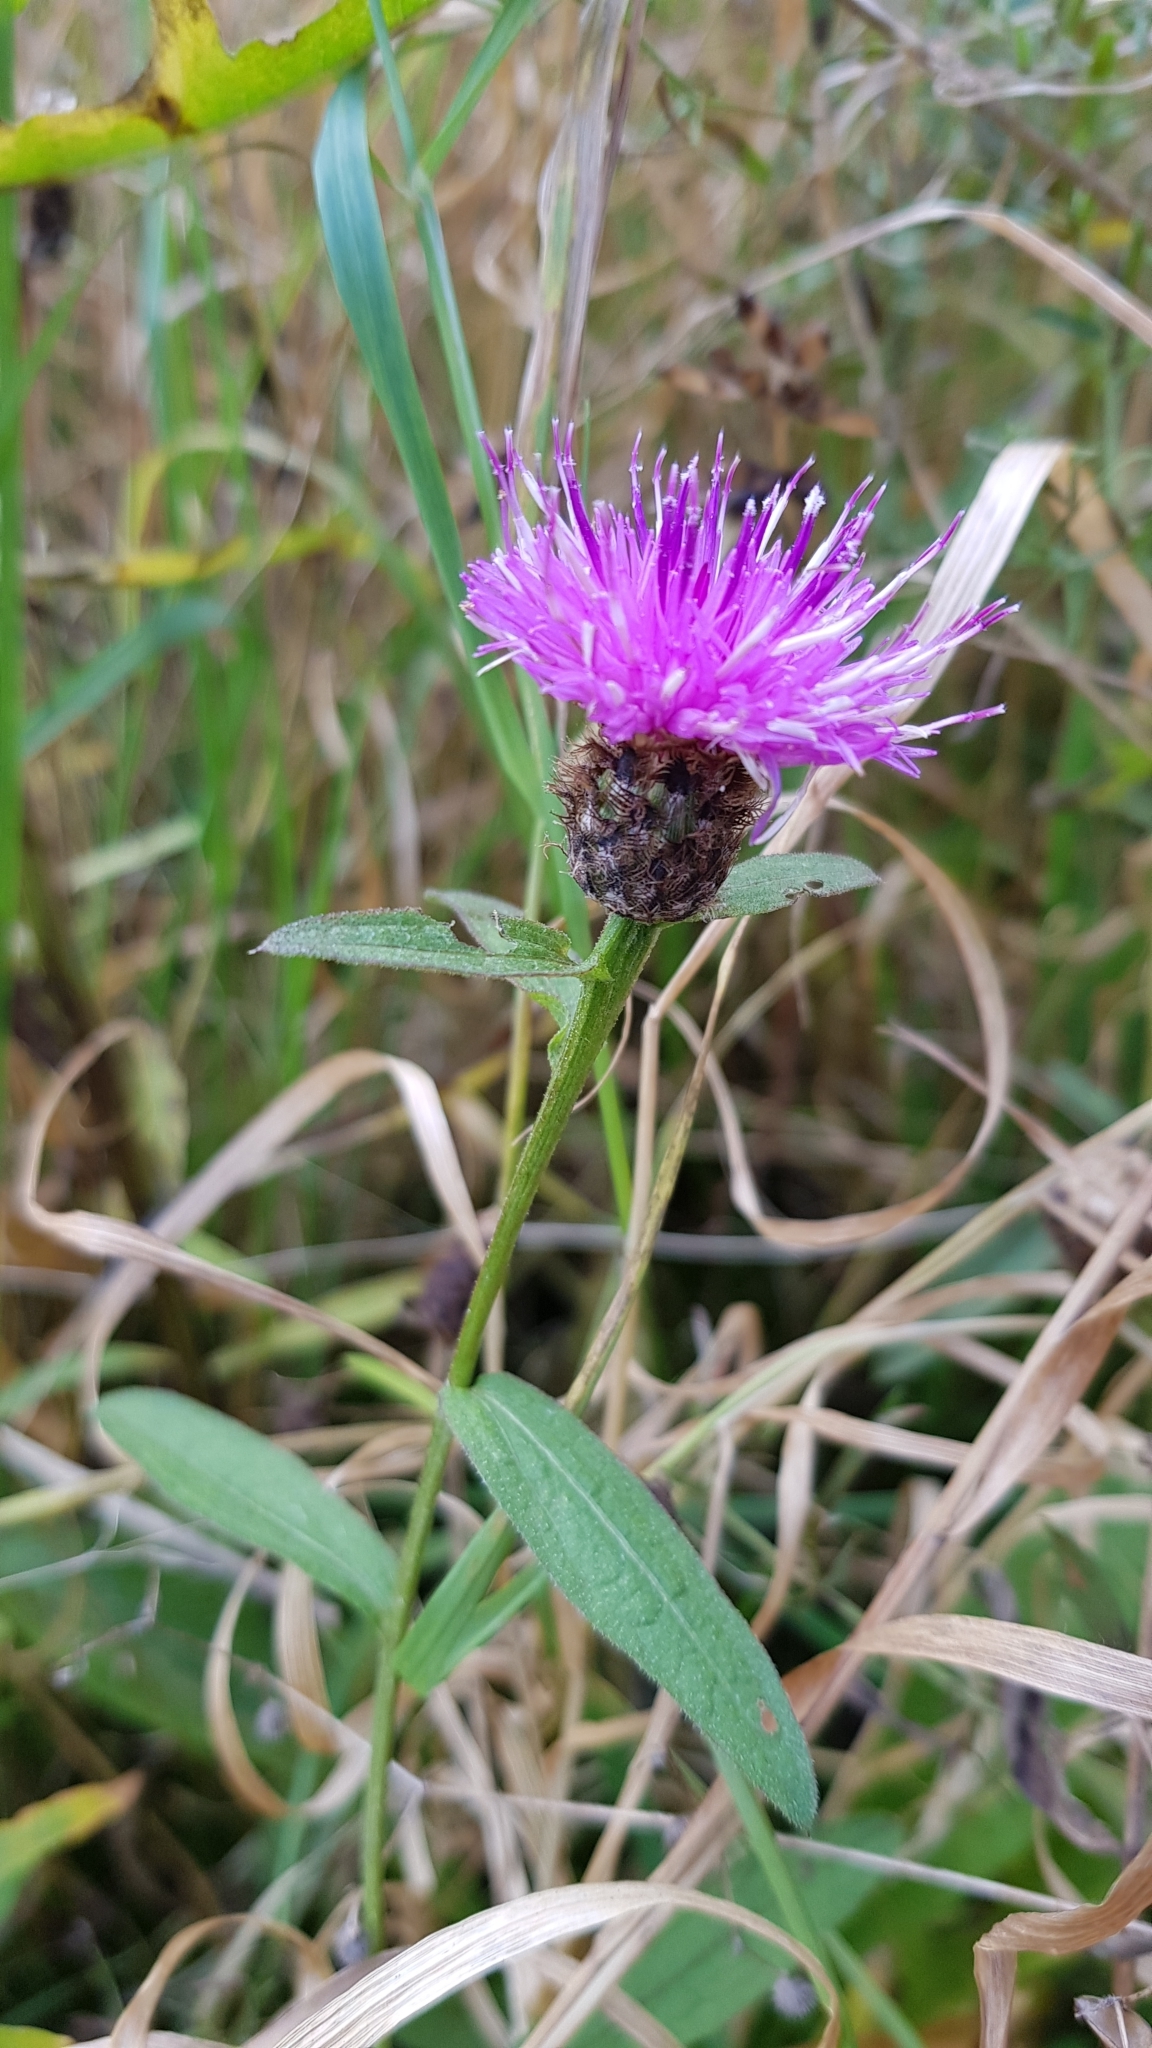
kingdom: Plantae
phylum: Tracheophyta
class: Magnoliopsida
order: Asterales
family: Asteraceae
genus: Centaurea
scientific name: Centaurea nigra
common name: Lesser knapweed
